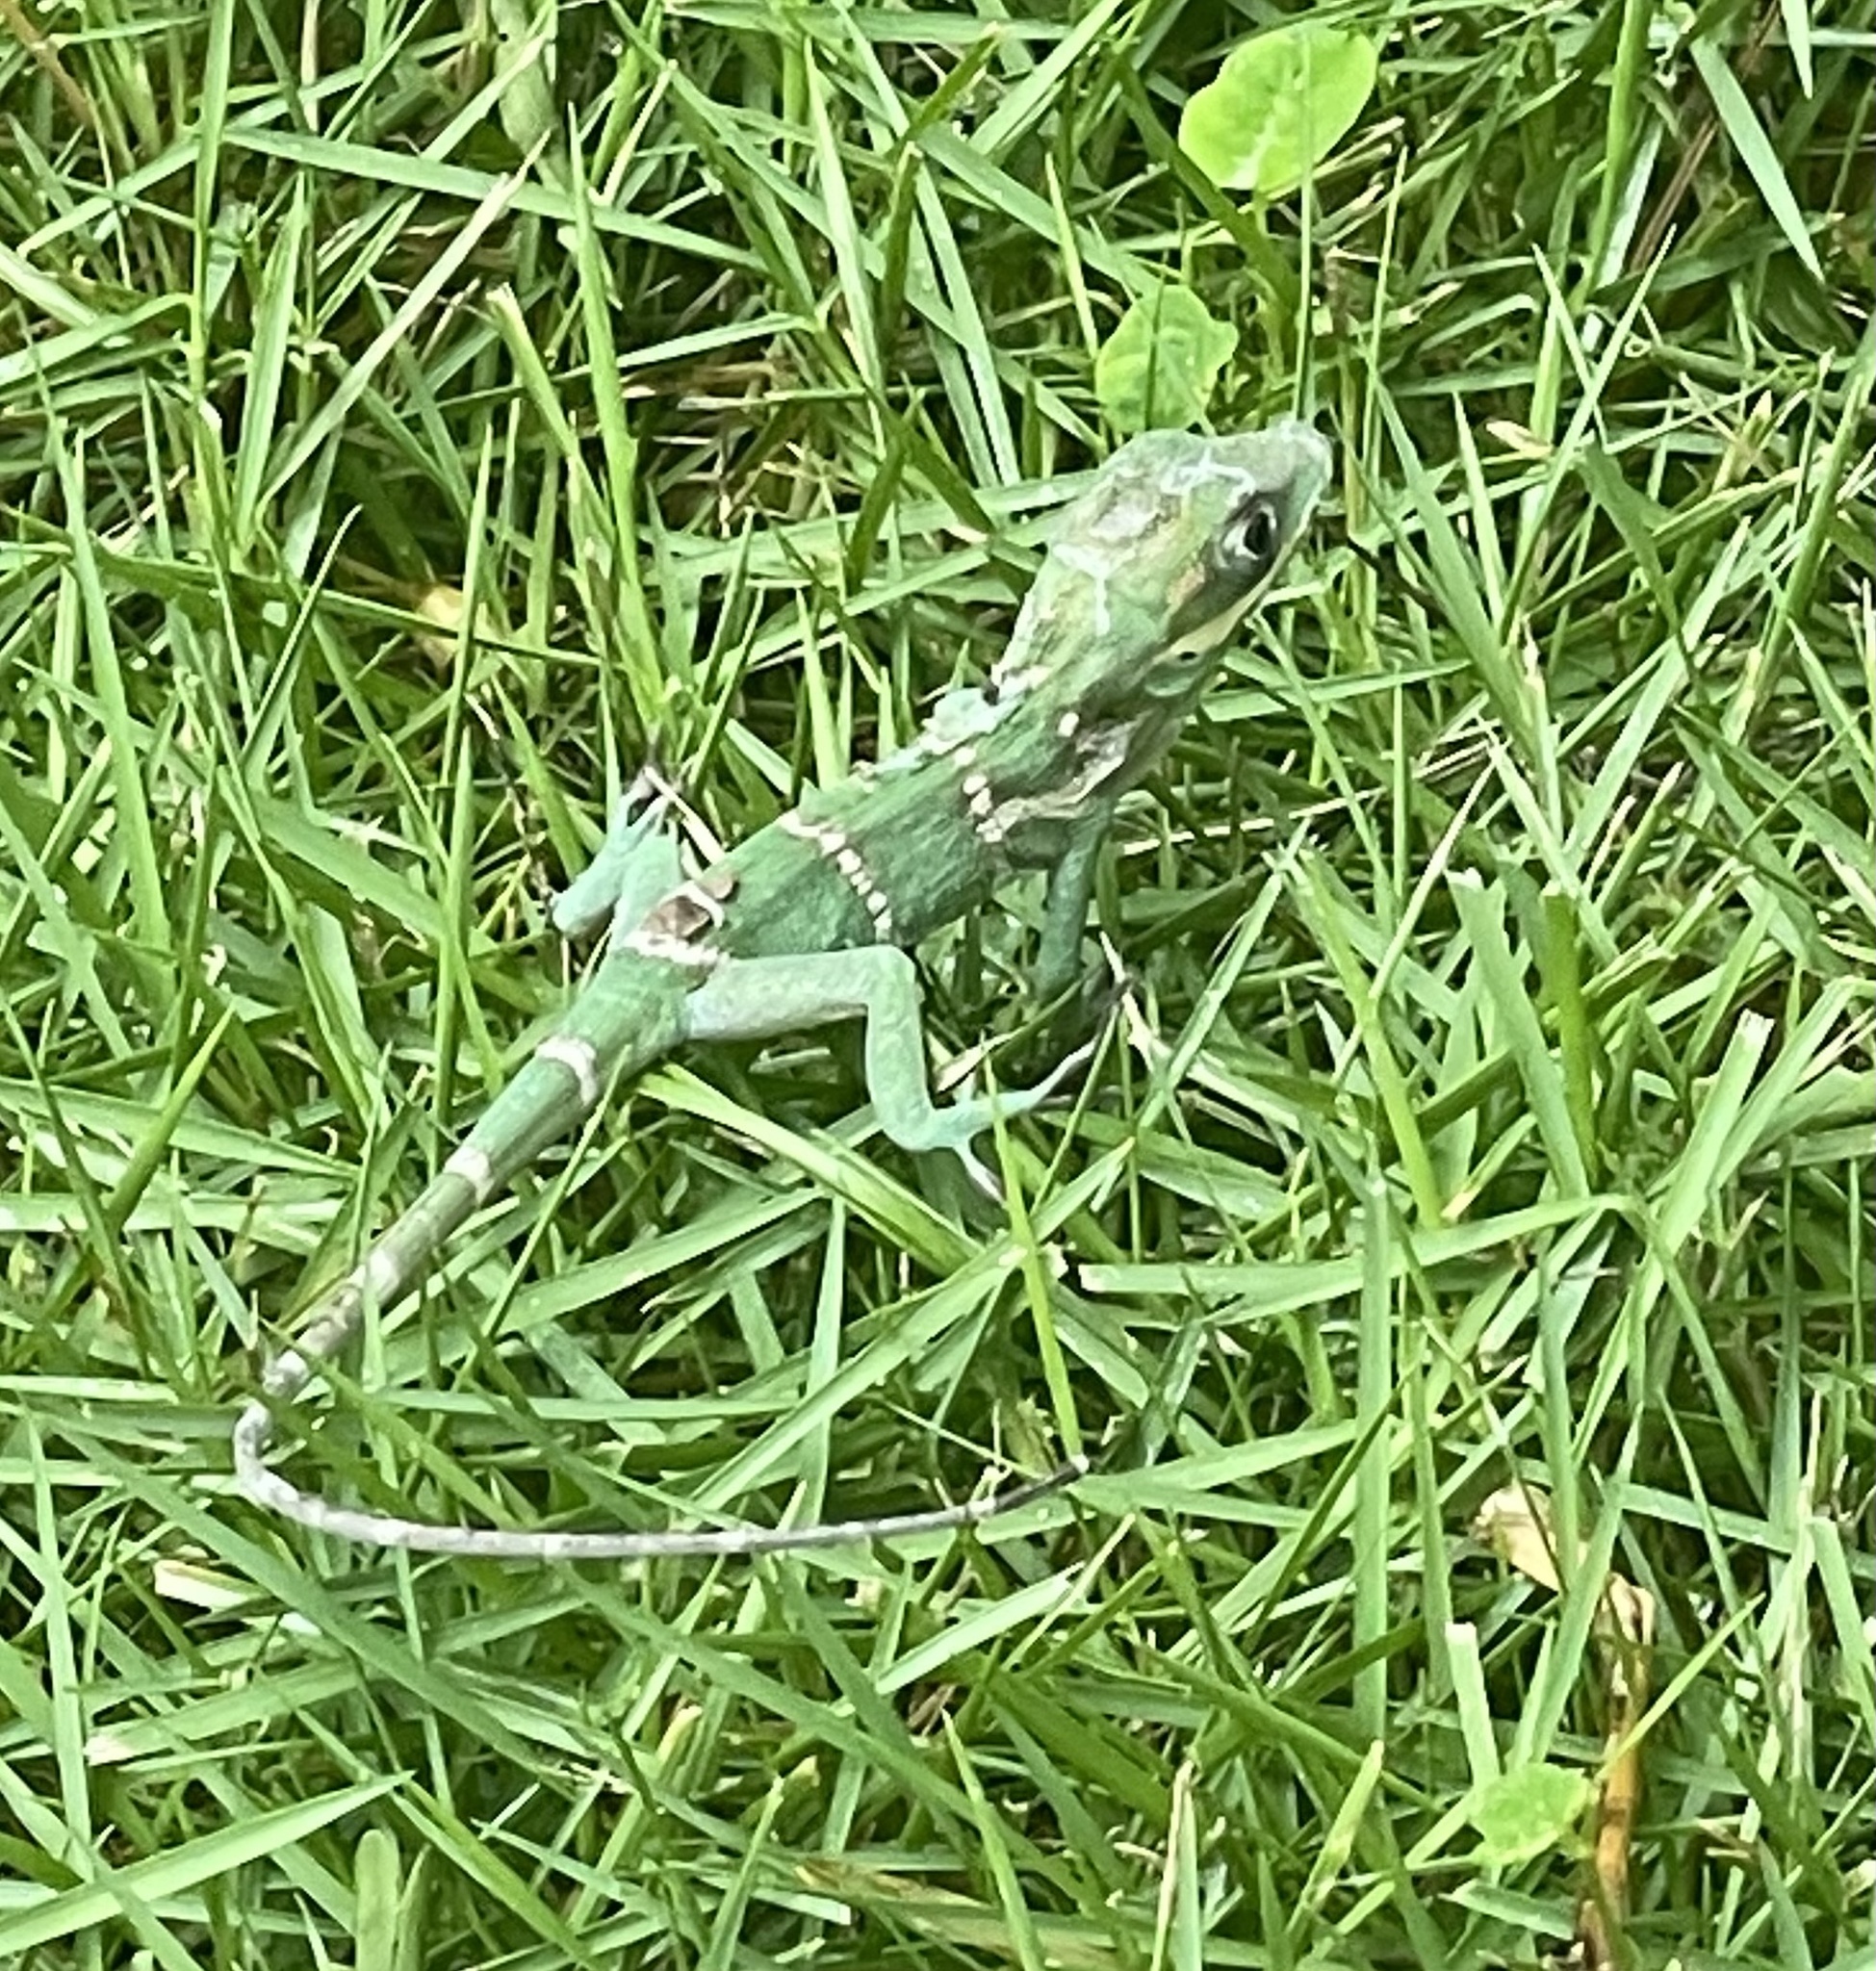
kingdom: Animalia
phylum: Chordata
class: Squamata
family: Dactyloidae
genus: Anolis
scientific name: Anolis equestris
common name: Knight anole
